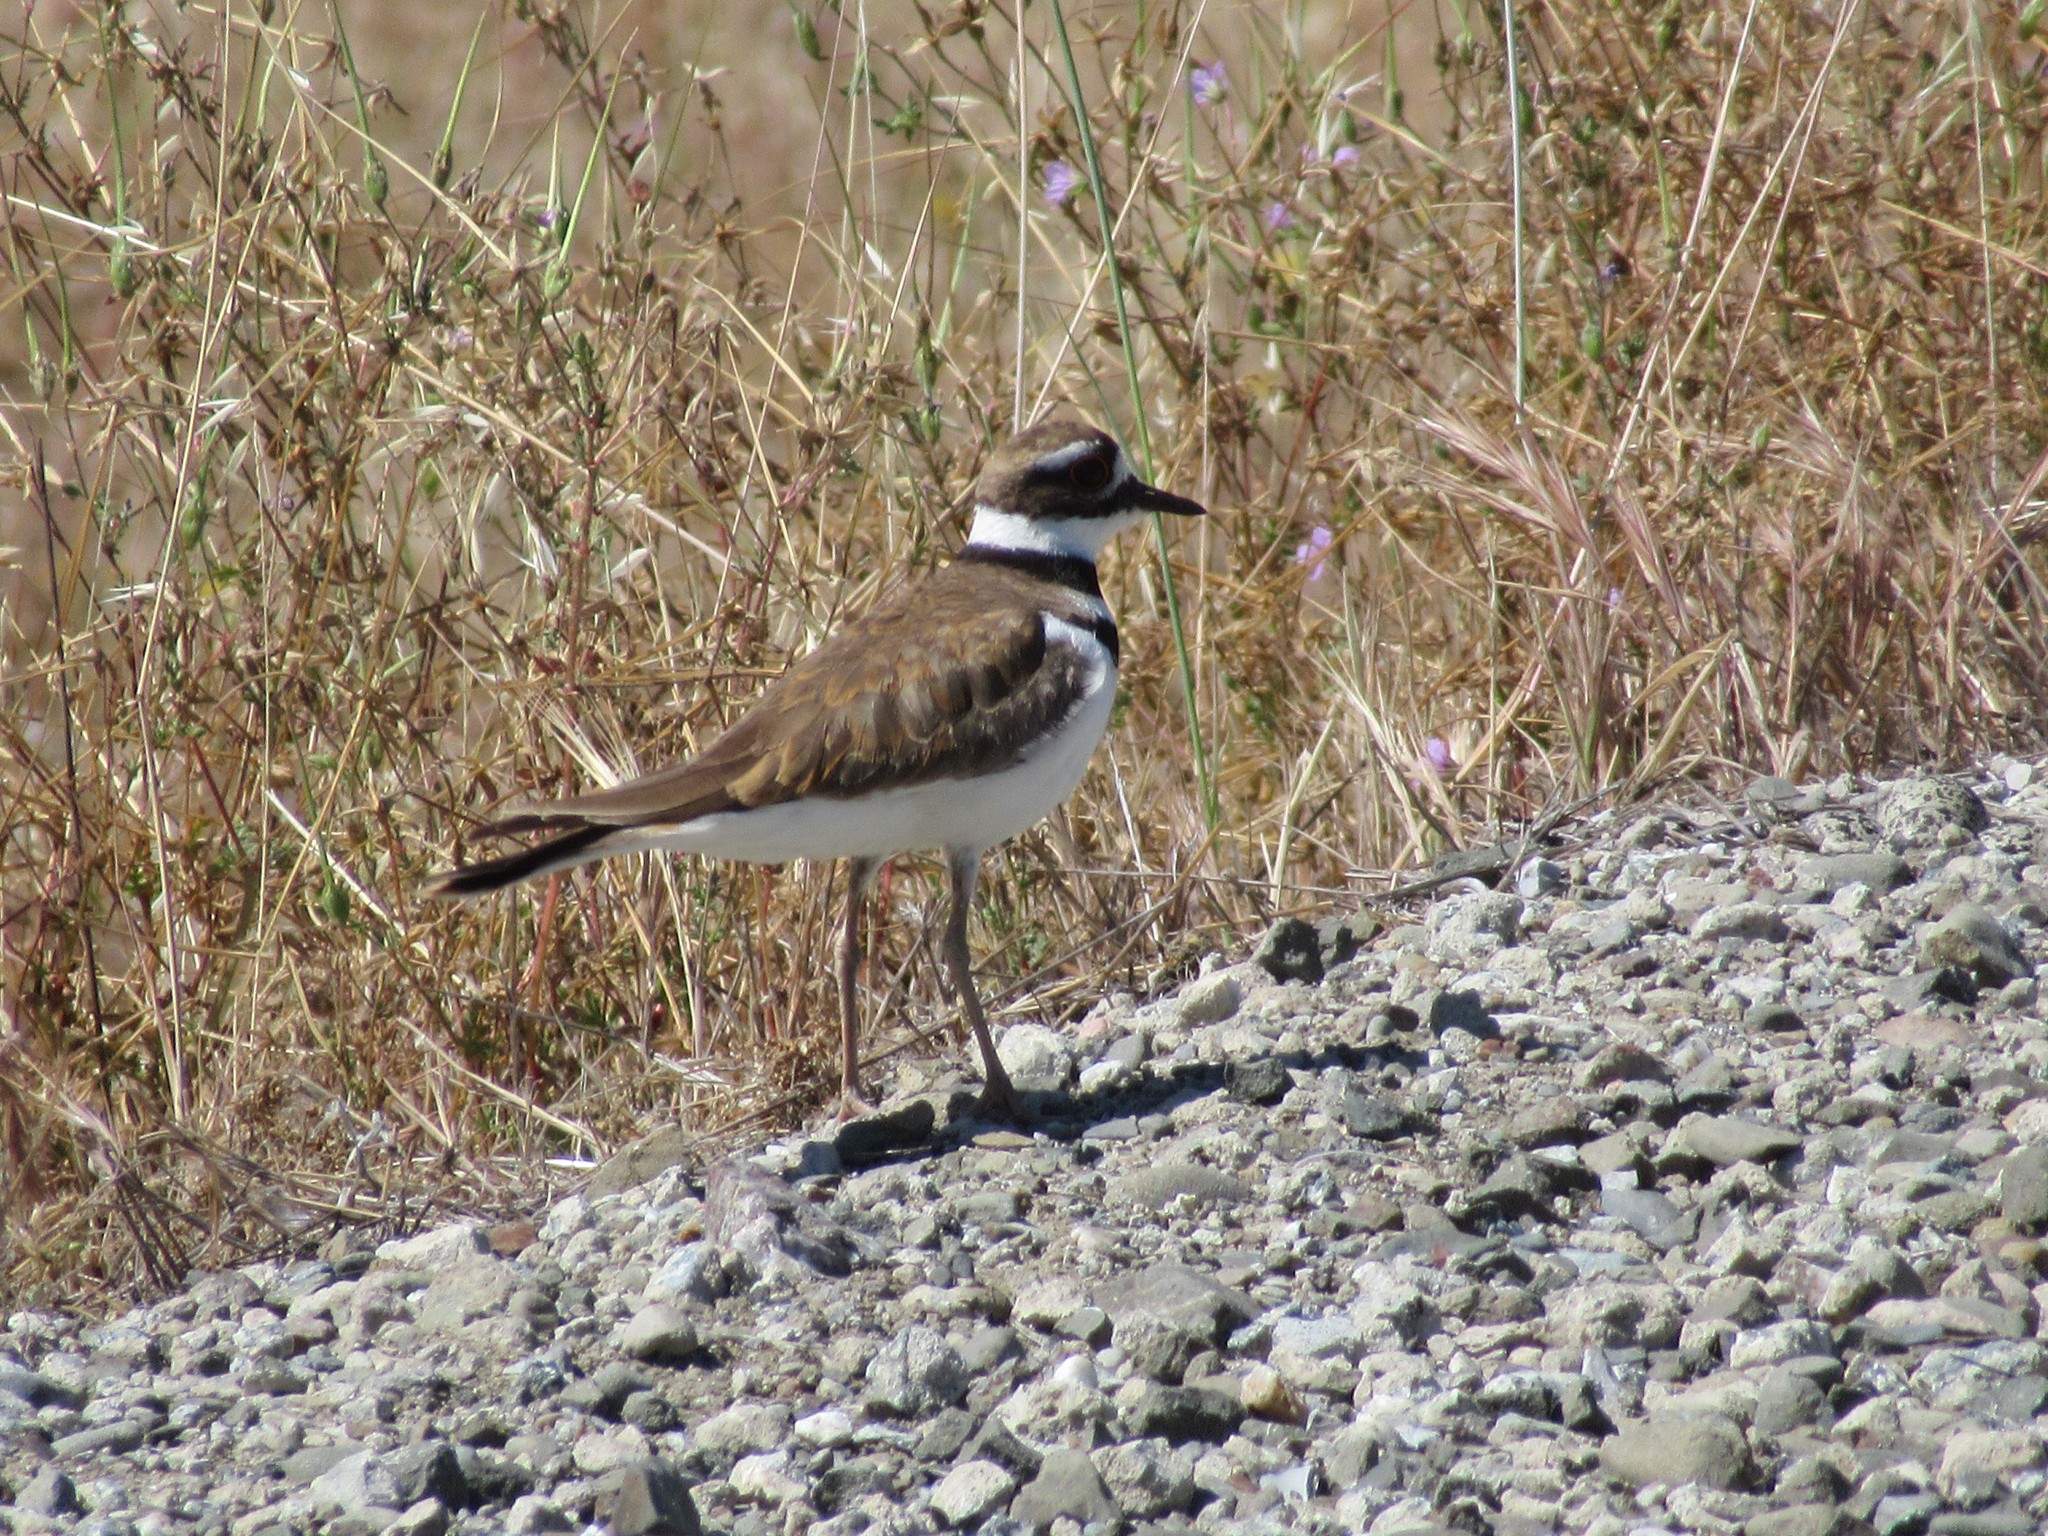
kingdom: Animalia
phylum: Chordata
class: Aves
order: Charadriiformes
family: Charadriidae
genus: Charadrius
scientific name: Charadrius vociferus
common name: Killdeer
